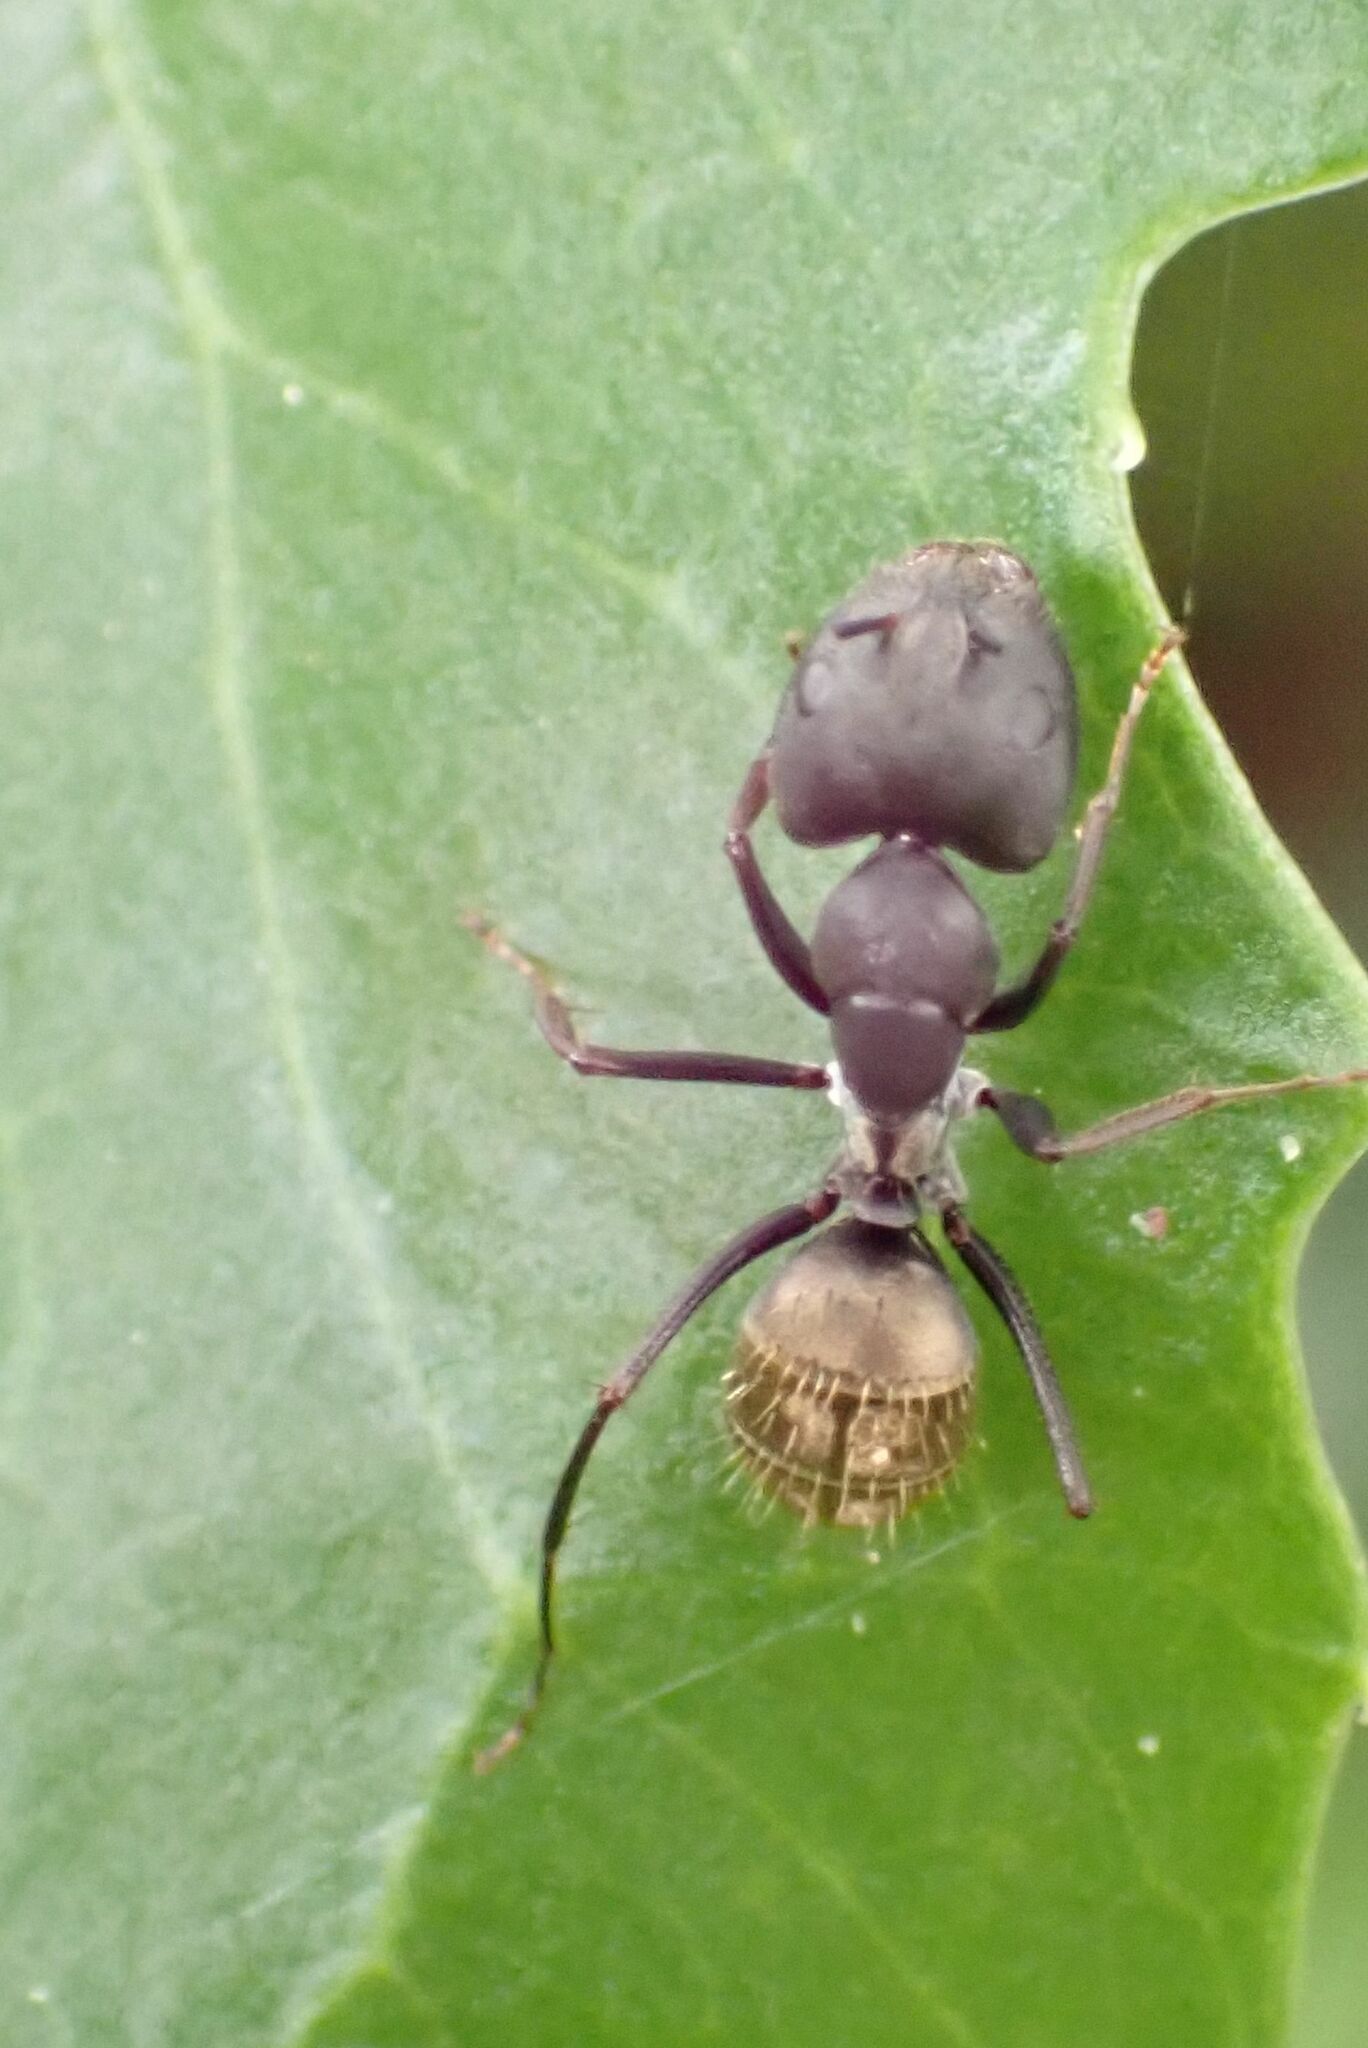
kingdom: Animalia
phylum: Arthropoda
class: Insecta
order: Hymenoptera
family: Formicidae
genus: Camponotus
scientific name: Camponotus cinctellus
